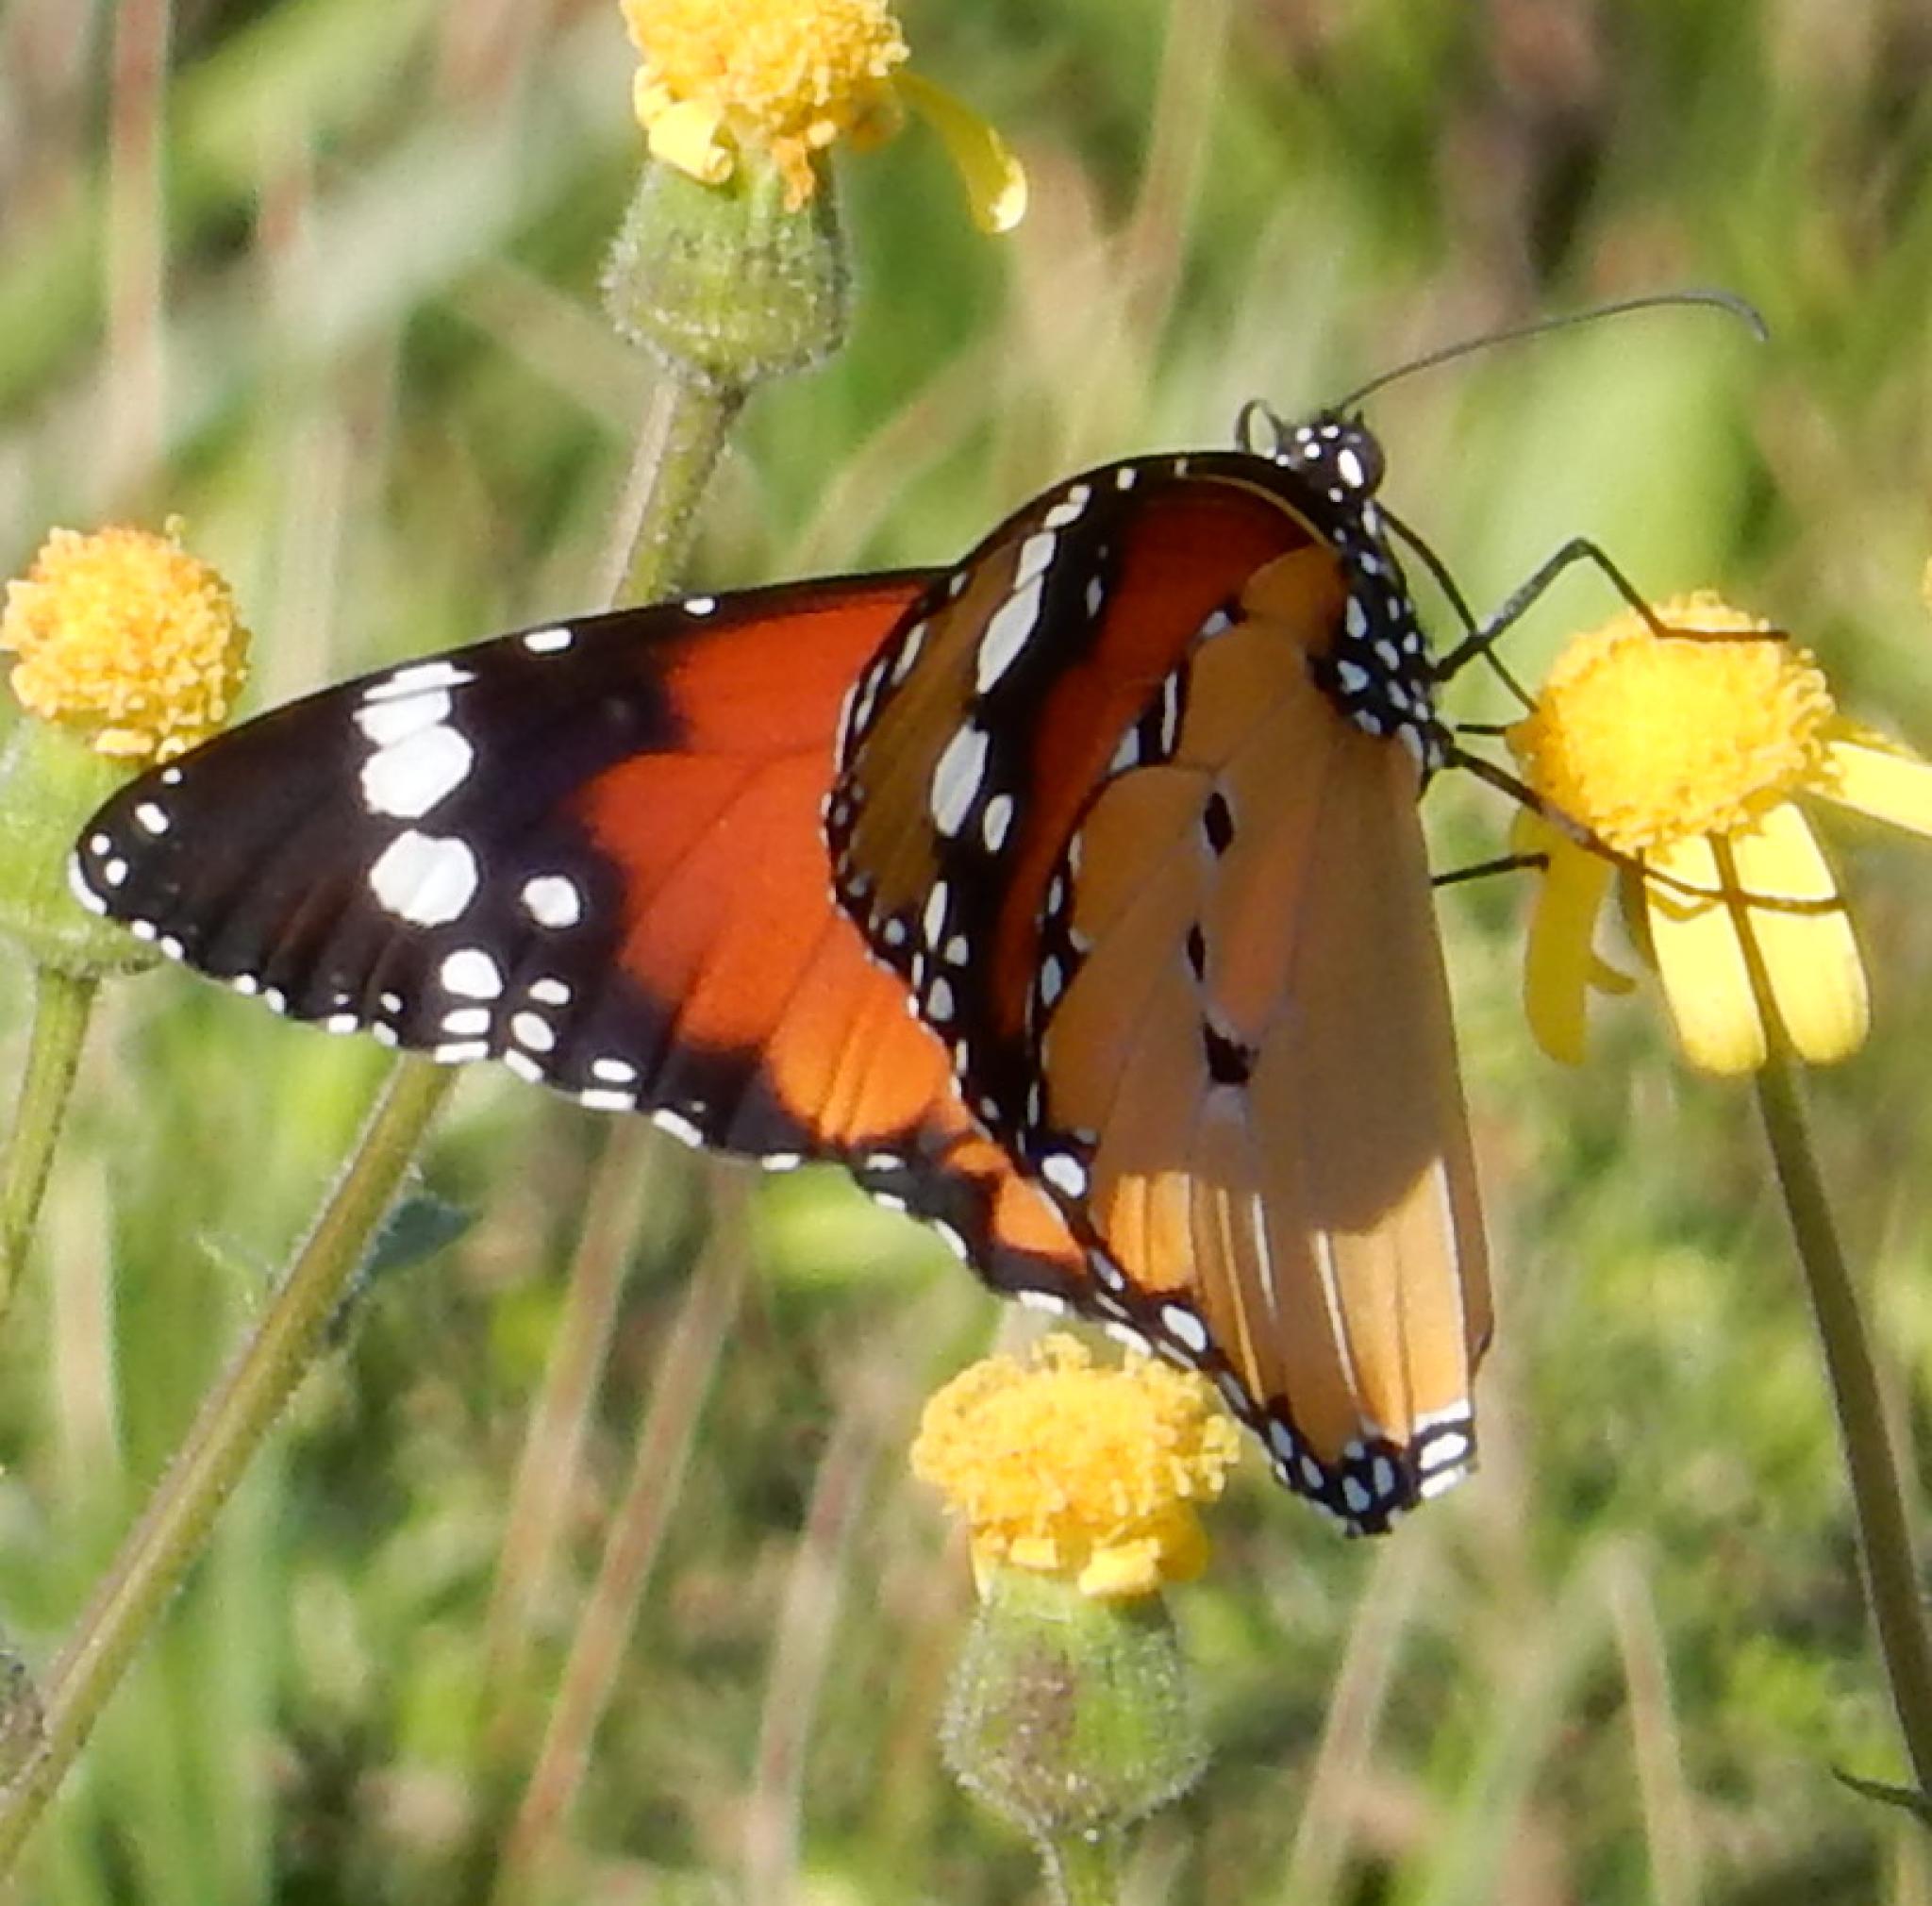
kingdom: Animalia
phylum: Arthropoda
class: Insecta
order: Lepidoptera
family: Nymphalidae
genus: Danaus
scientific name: Danaus chrysippus
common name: Plain tiger
